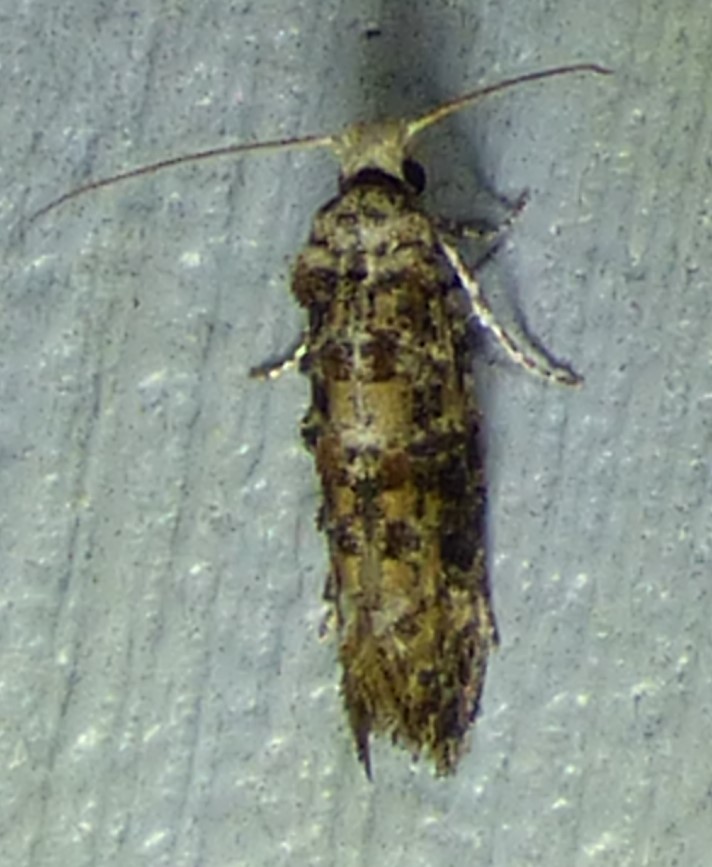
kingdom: Animalia
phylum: Arthropoda
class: Insecta
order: Lepidoptera
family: Tineidae
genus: Xylesthia
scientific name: Xylesthia pruniramiella
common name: Clemens' bark moth
